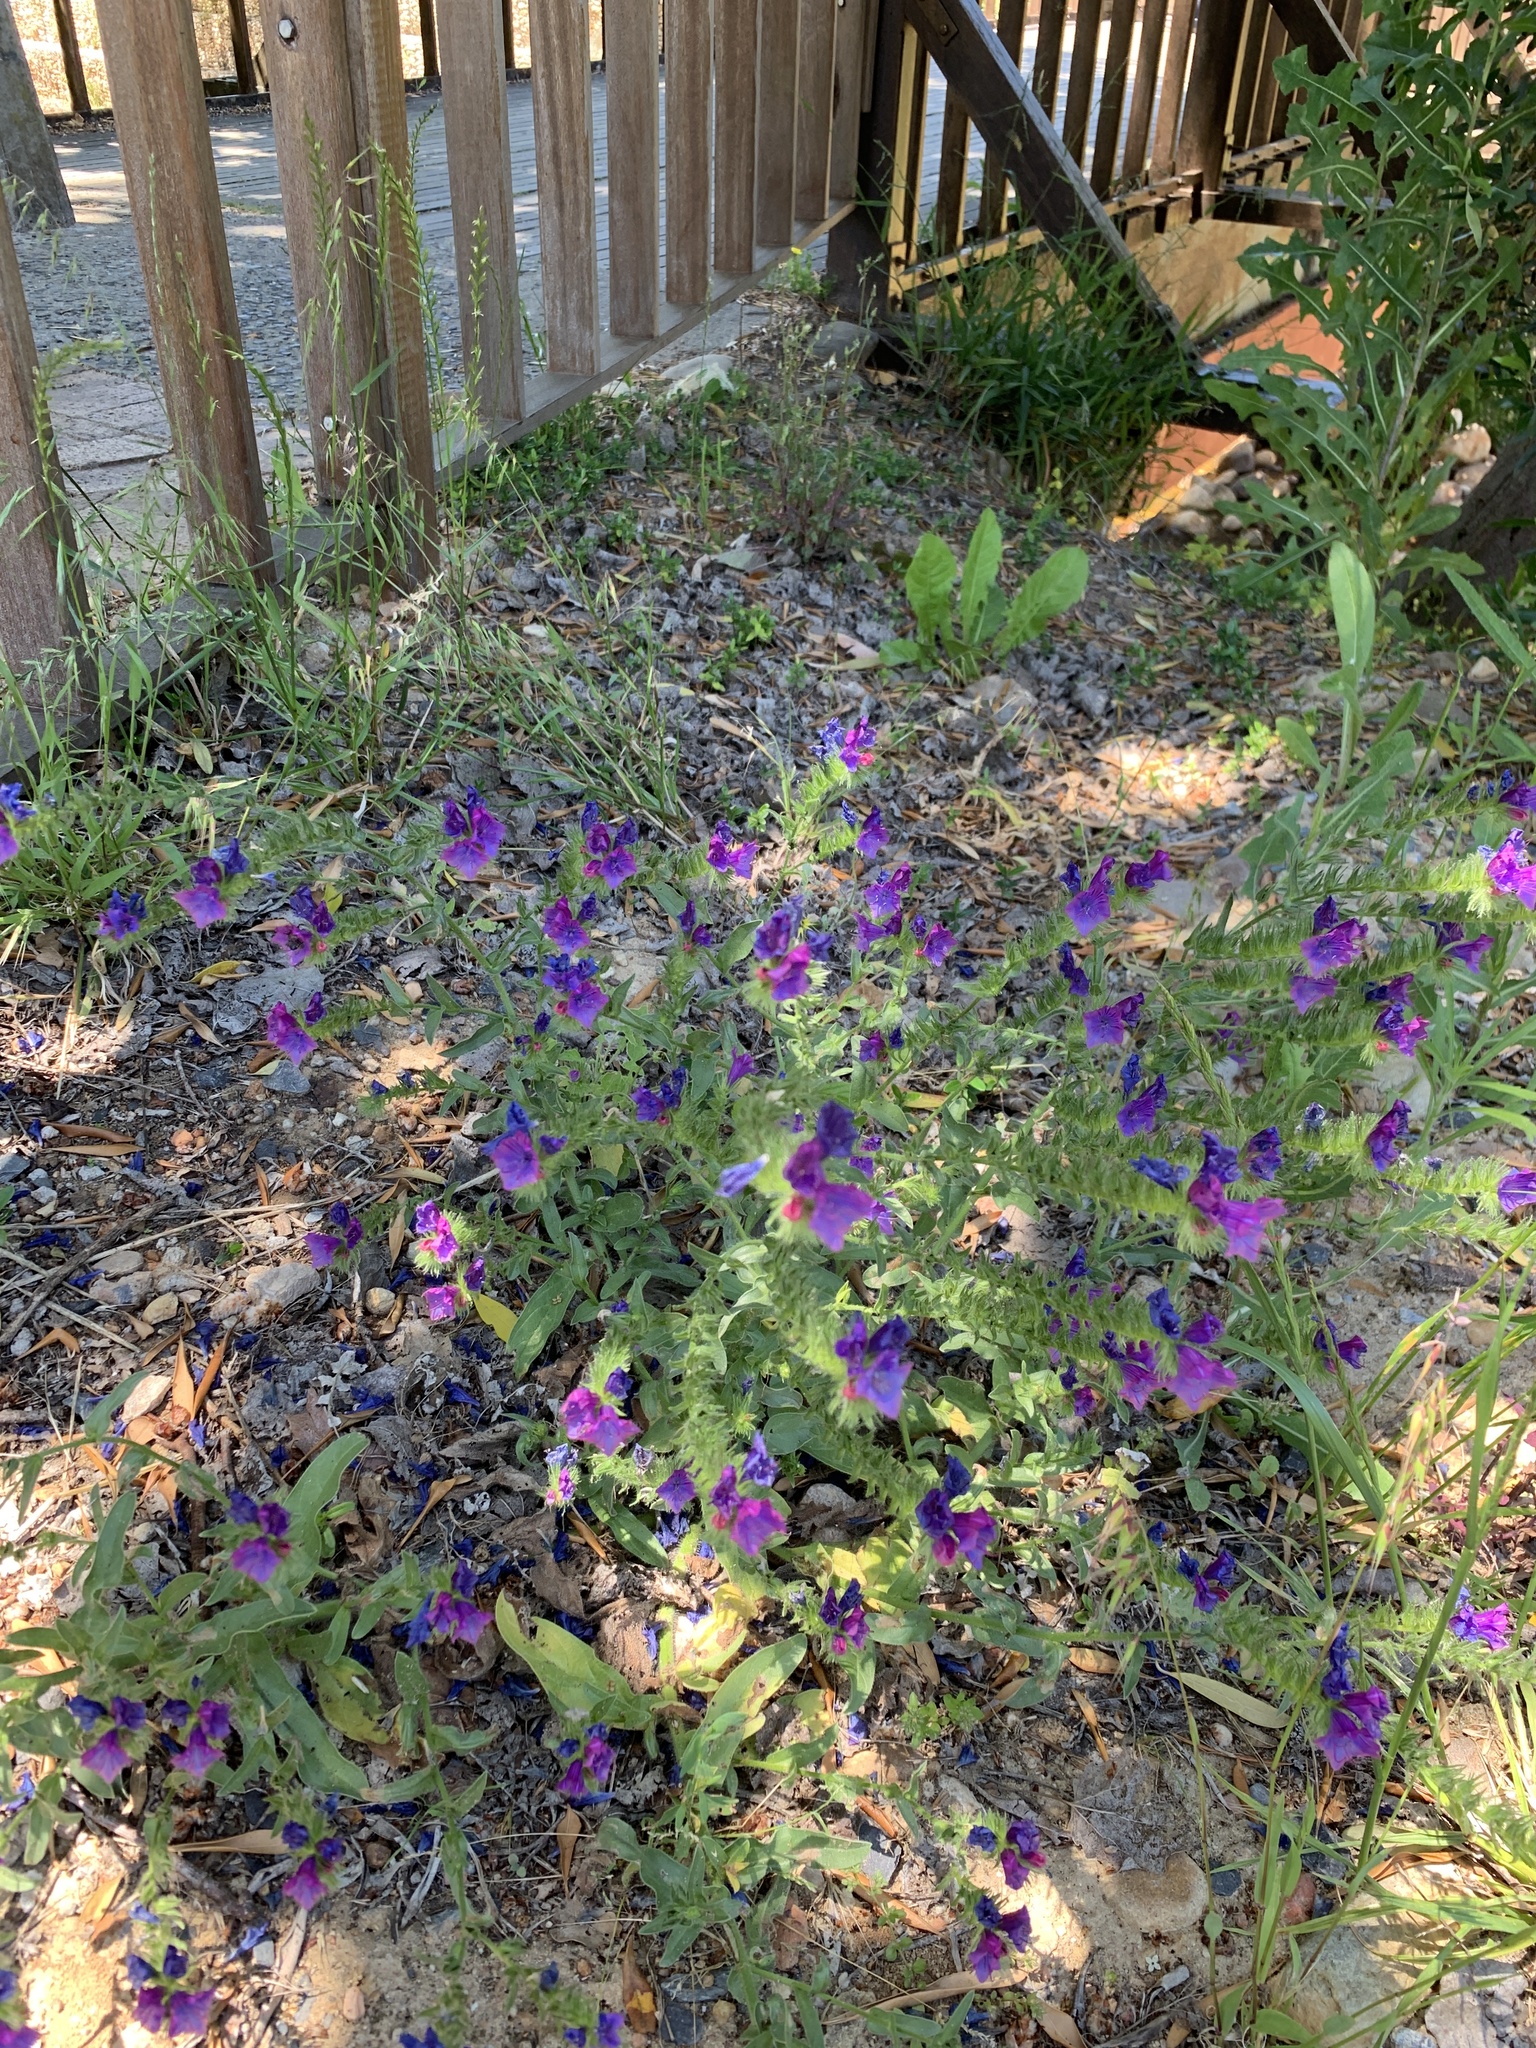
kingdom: Plantae
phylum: Tracheophyta
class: Magnoliopsida
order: Boraginales
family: Boraginaceae
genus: Echium
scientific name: Echium plantagineum
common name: Purple viper's-bugloss
